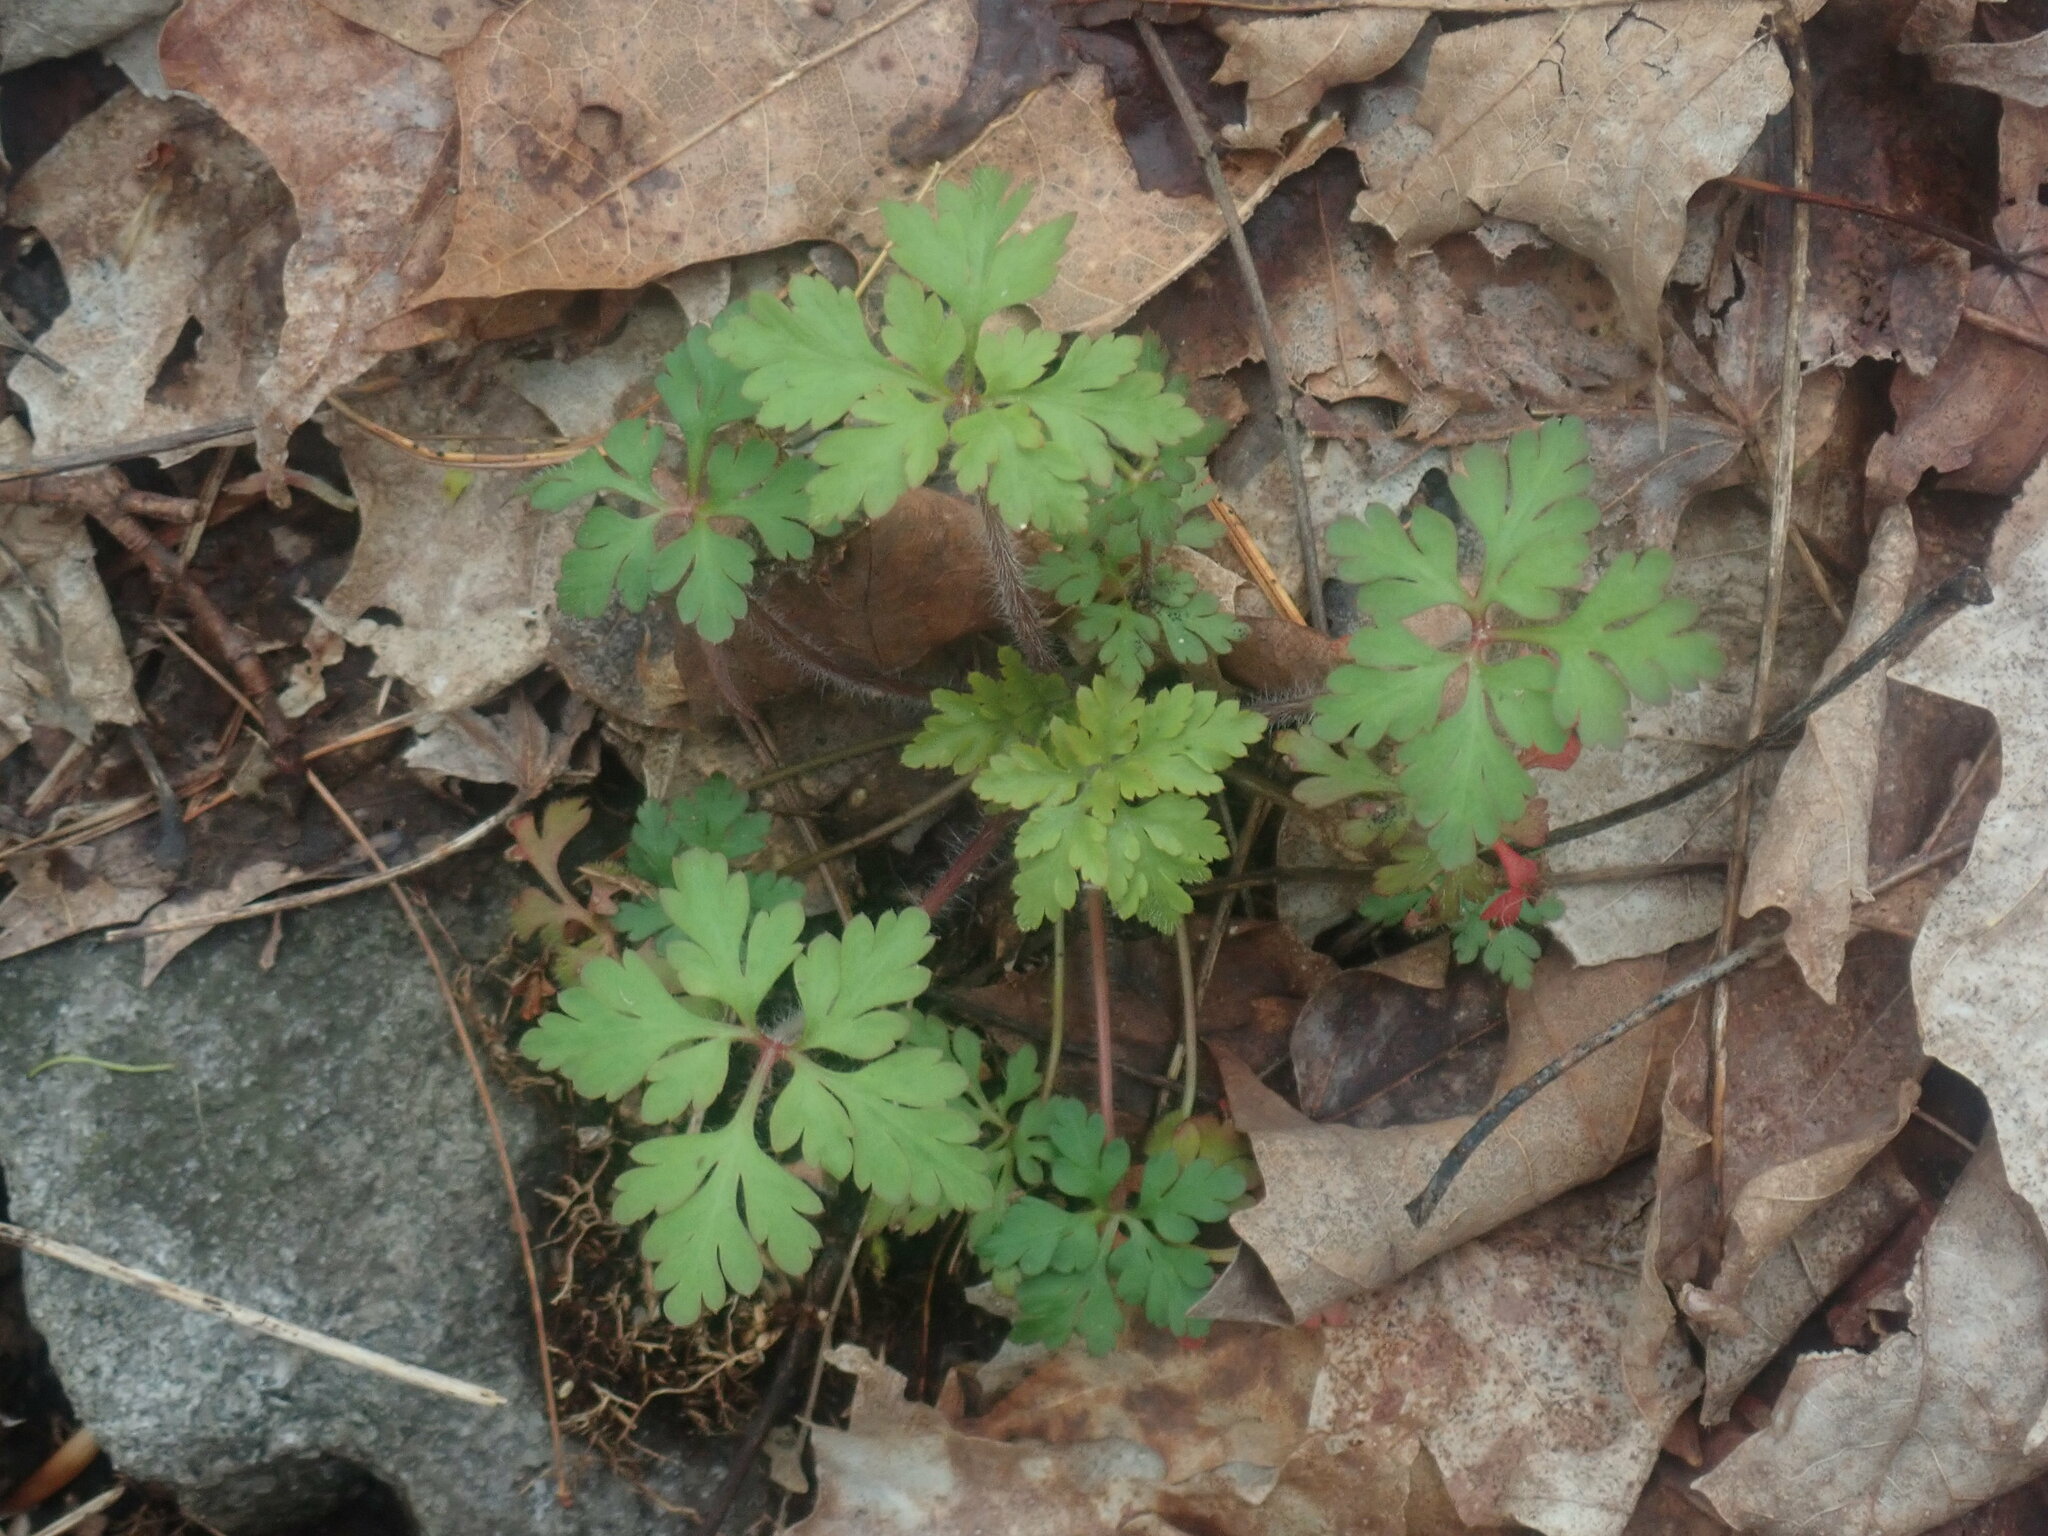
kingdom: Plantae
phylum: Tracheophyta
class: Magnoliopsida
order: Geraniales
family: Geraniaceae
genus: Geranium
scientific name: Geranium robertianum
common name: Herb-robert
